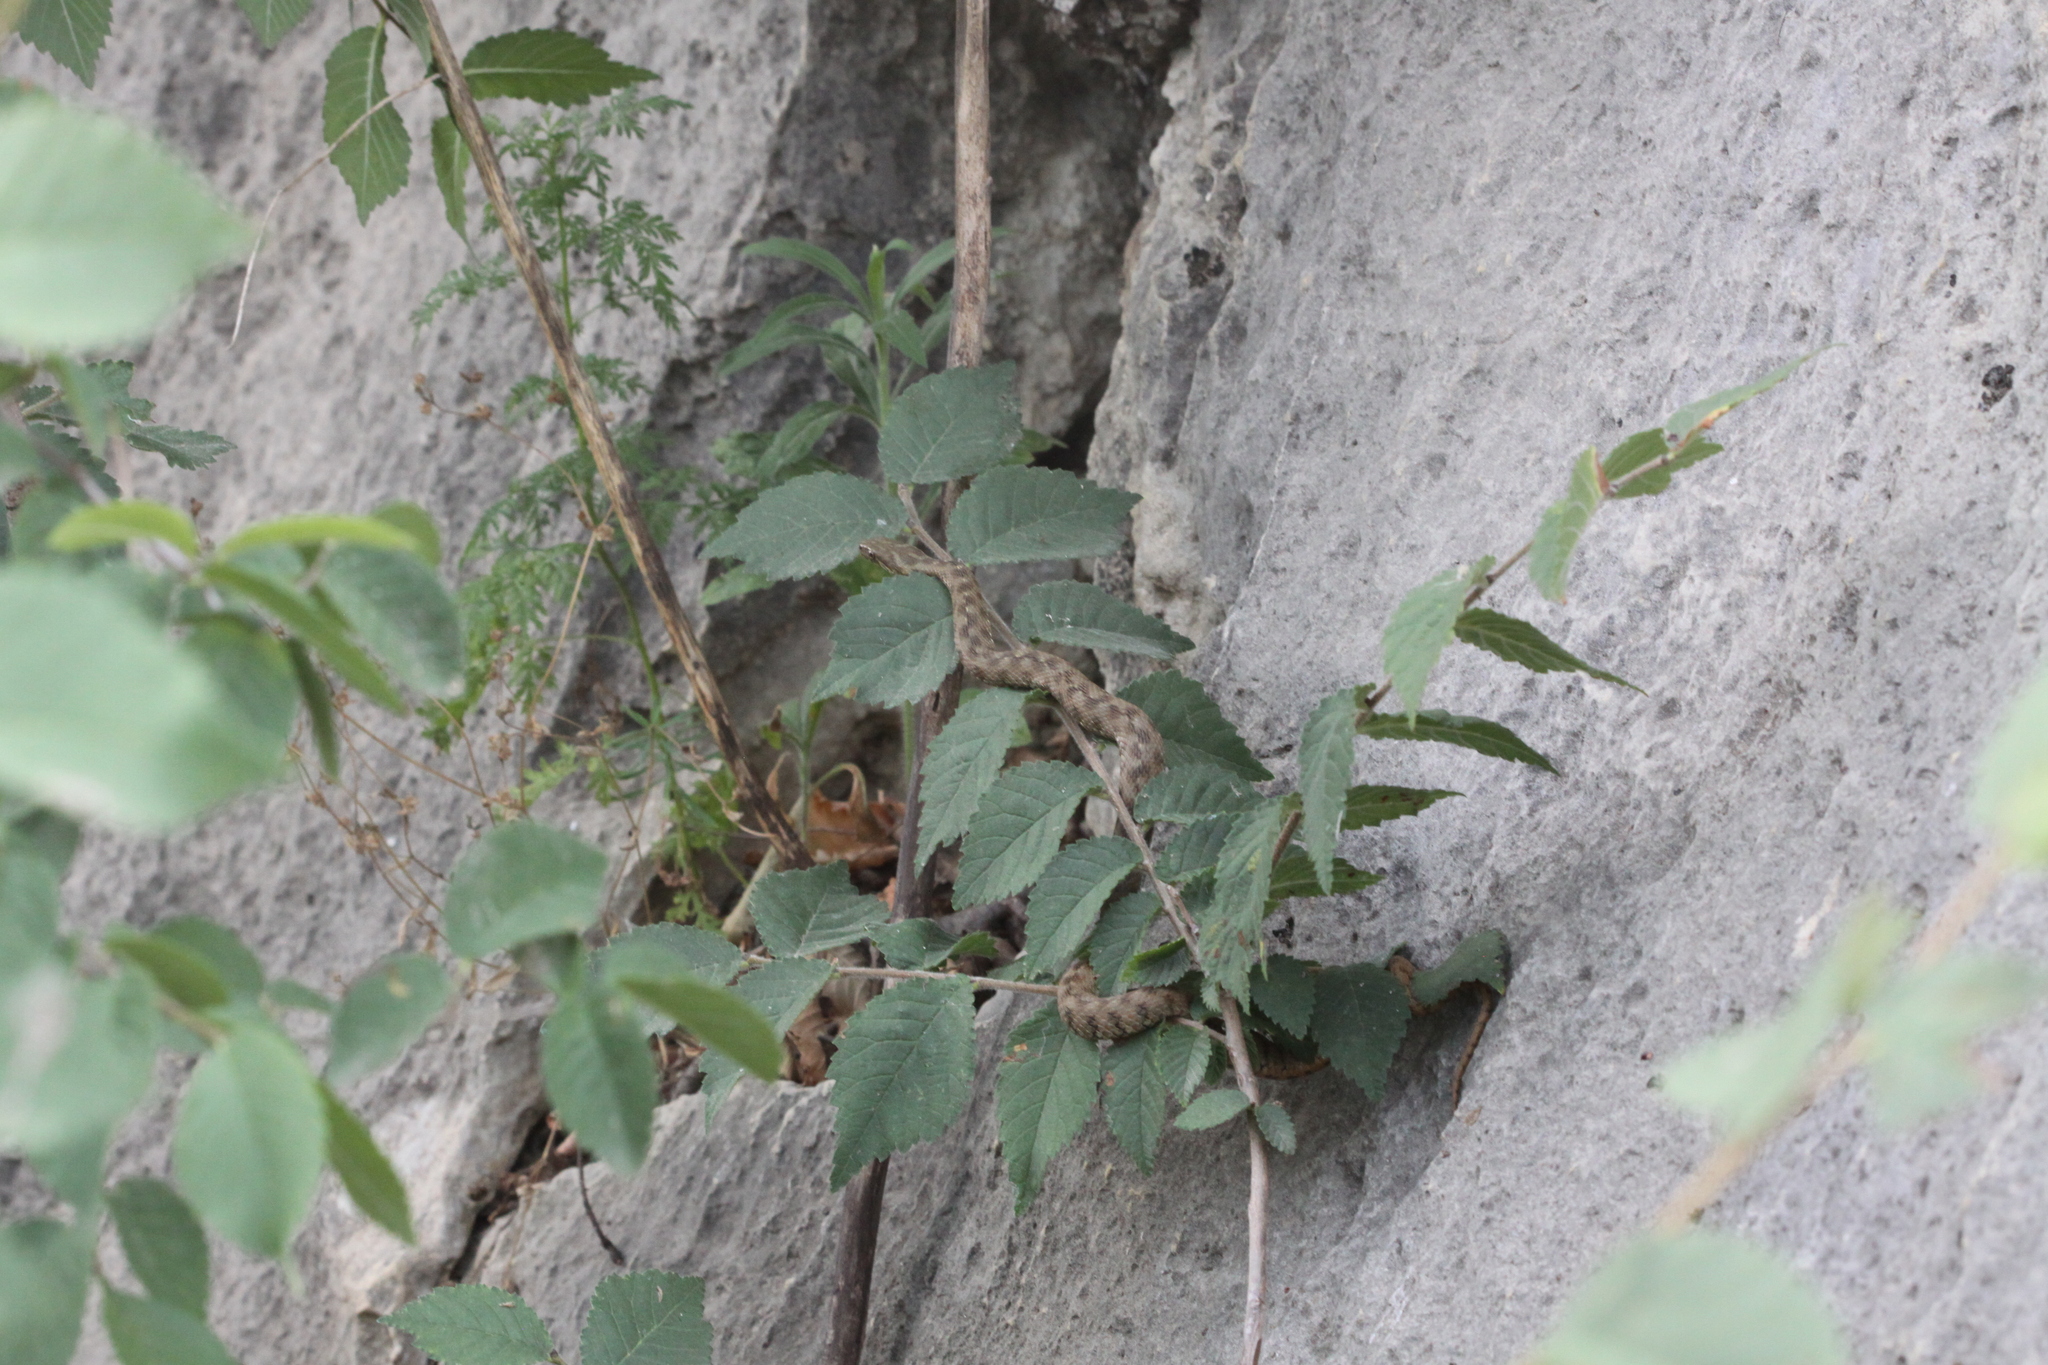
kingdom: Animalia
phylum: Chordata
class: Squamata
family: Colubridae
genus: Natrix
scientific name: Natrix maura
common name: Viperine water snake
